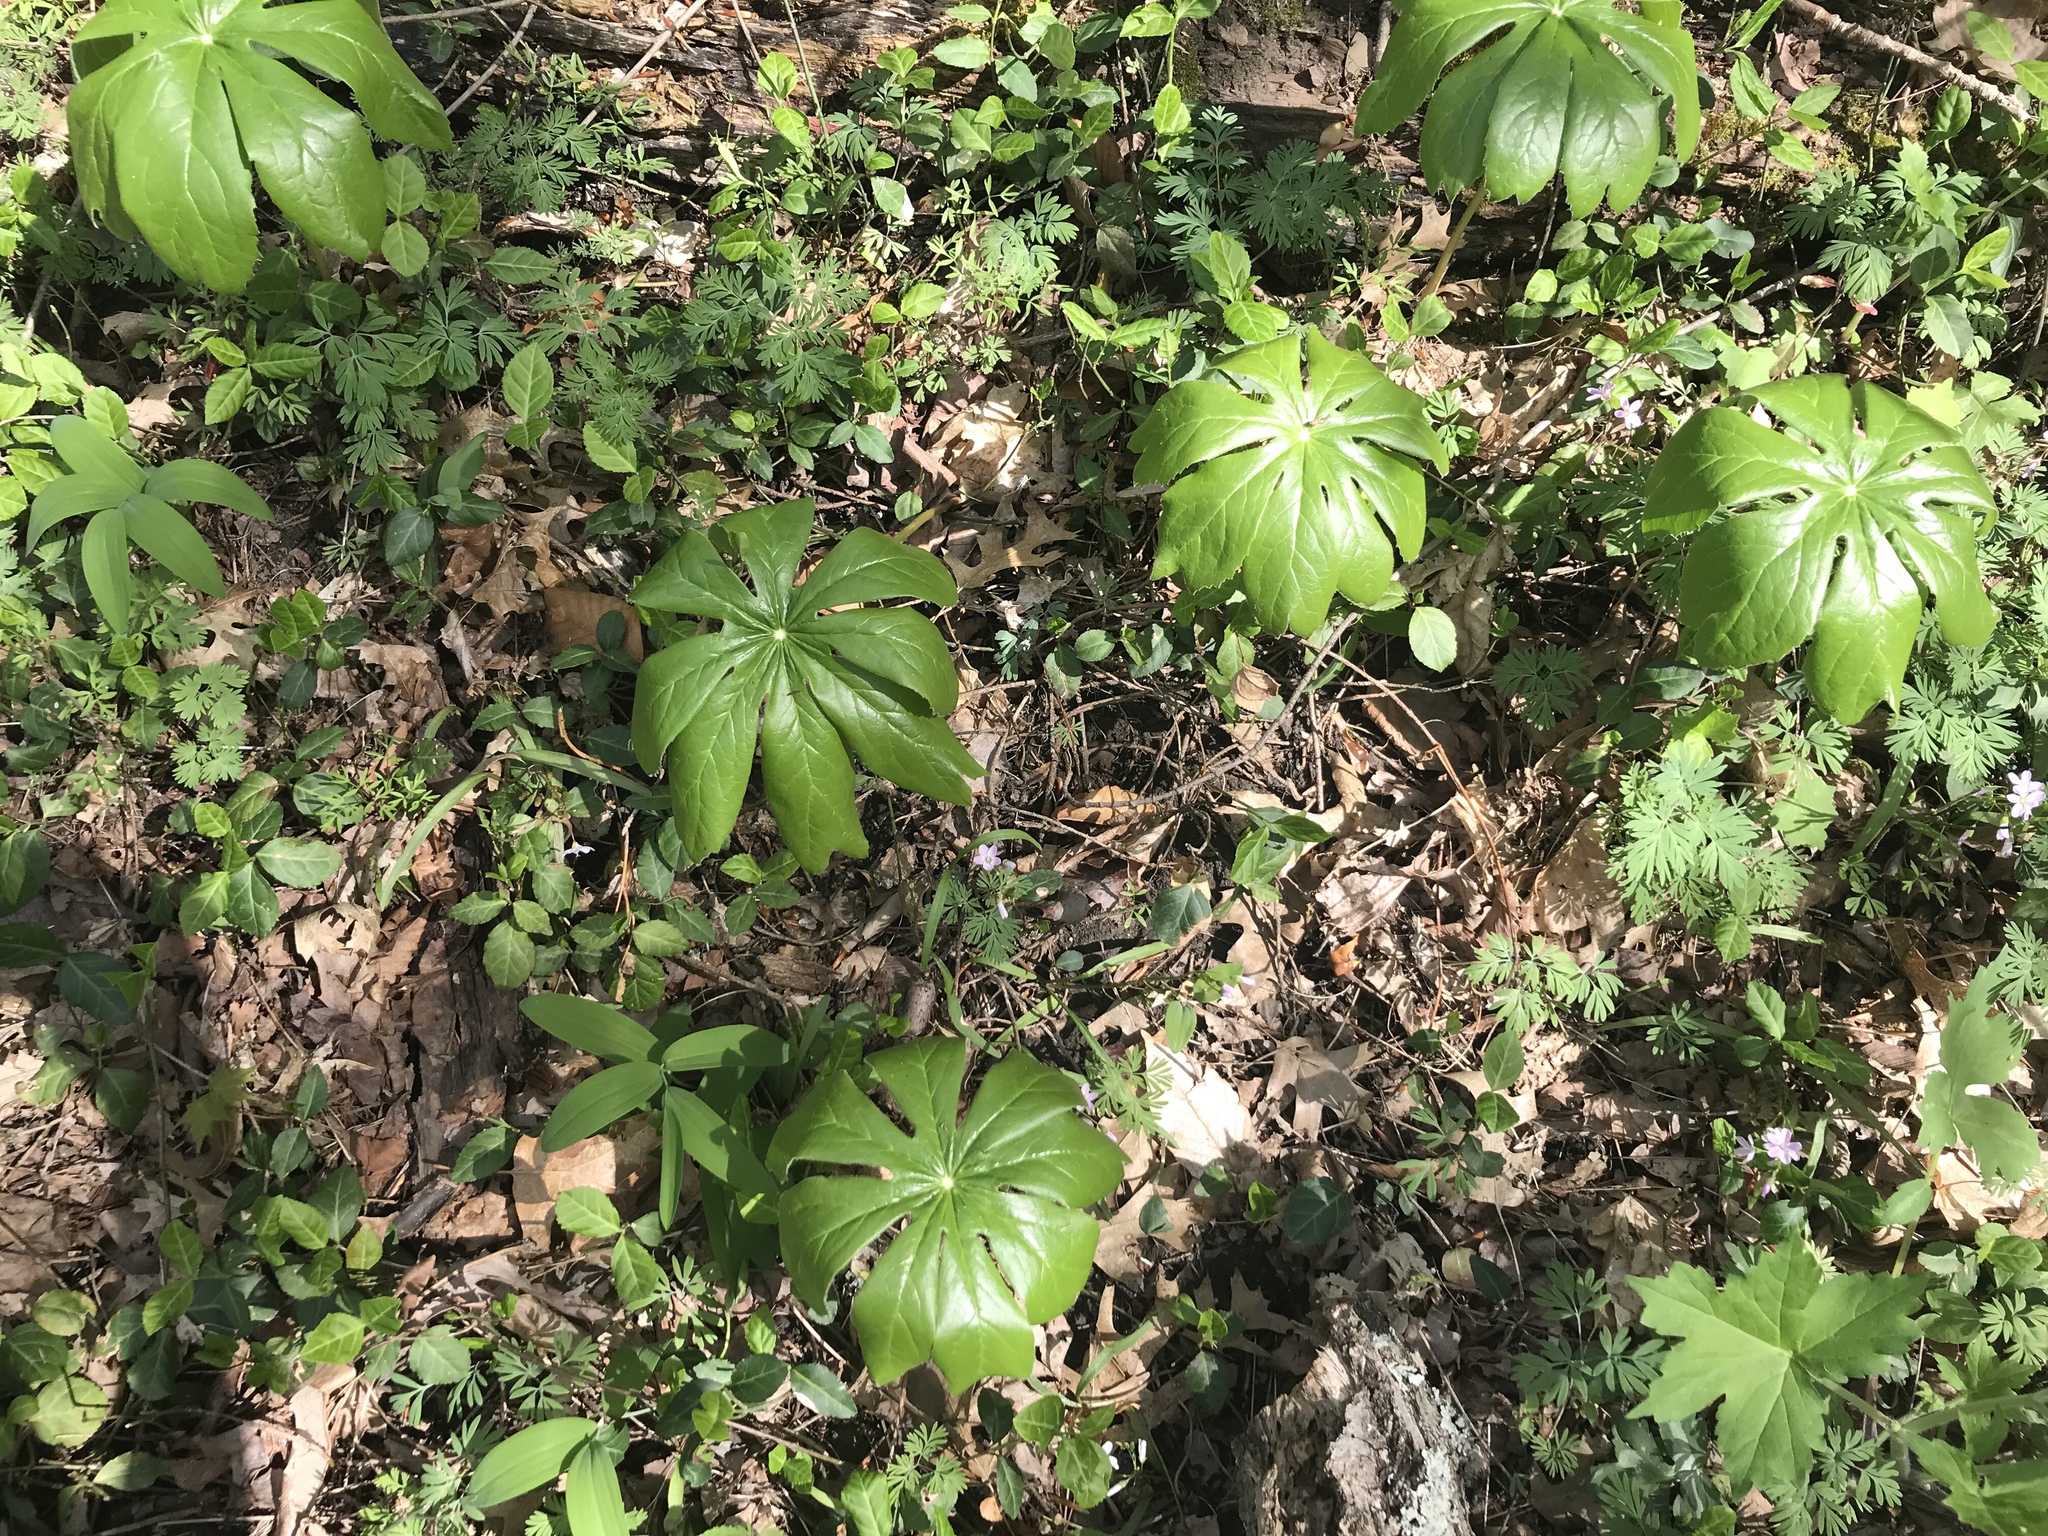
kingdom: Plantae
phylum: Tracheophyta
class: Magnoliopsida
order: Ranunculales
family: Berberidaceae
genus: Podophyllum
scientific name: Podophyllum peltatum
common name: Wild mandrake
